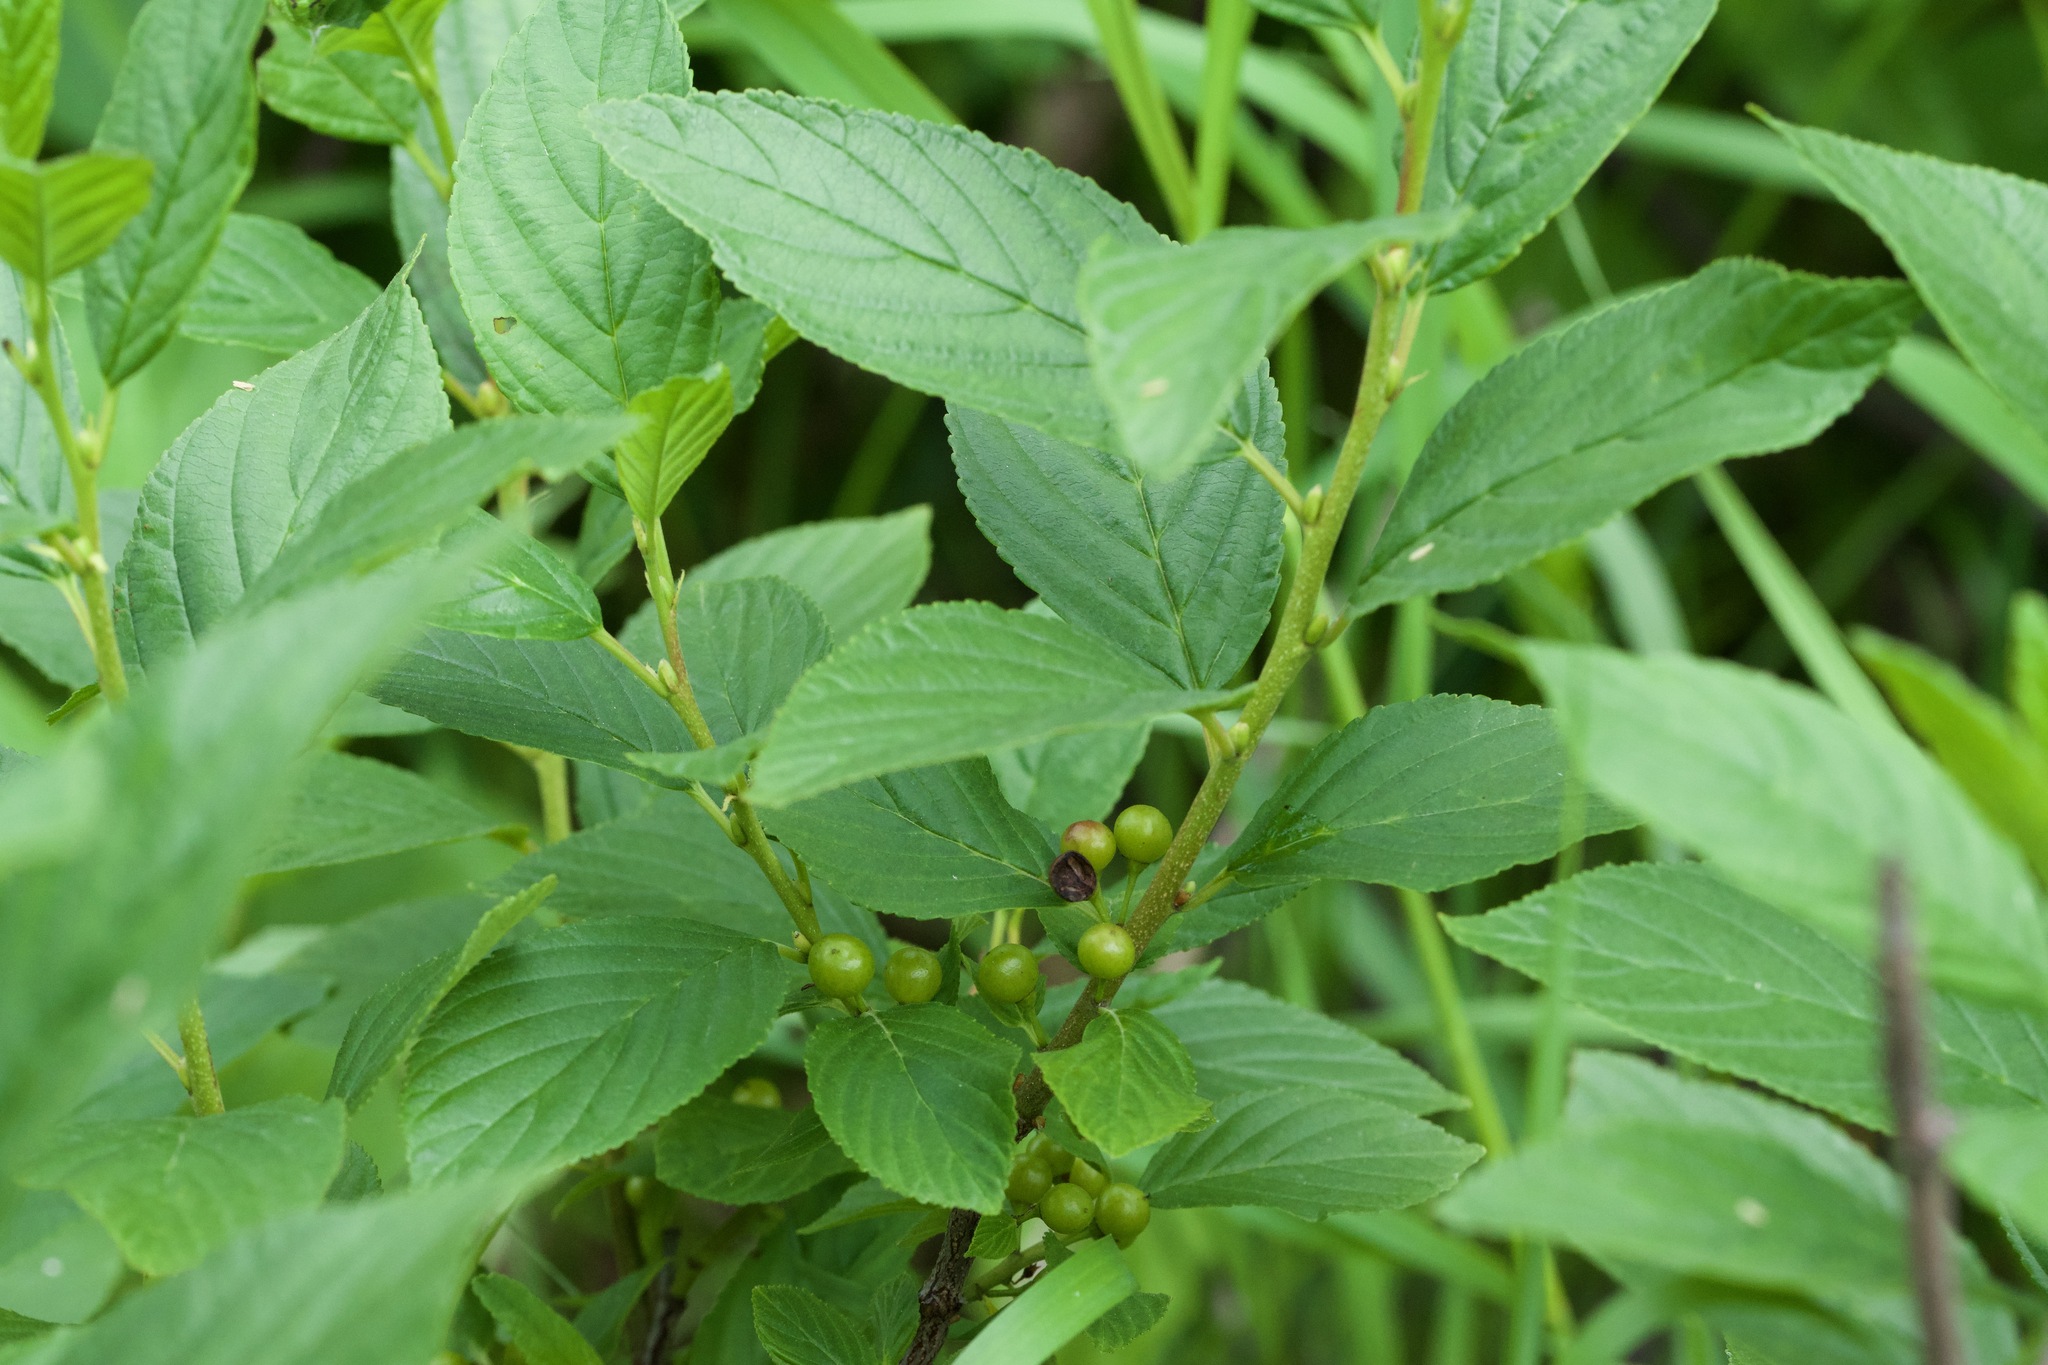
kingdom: Plantae
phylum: Tracheophyta
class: Magnoliopsida
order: Rosales
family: Rhamnaceae
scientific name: Rhamnaceae
